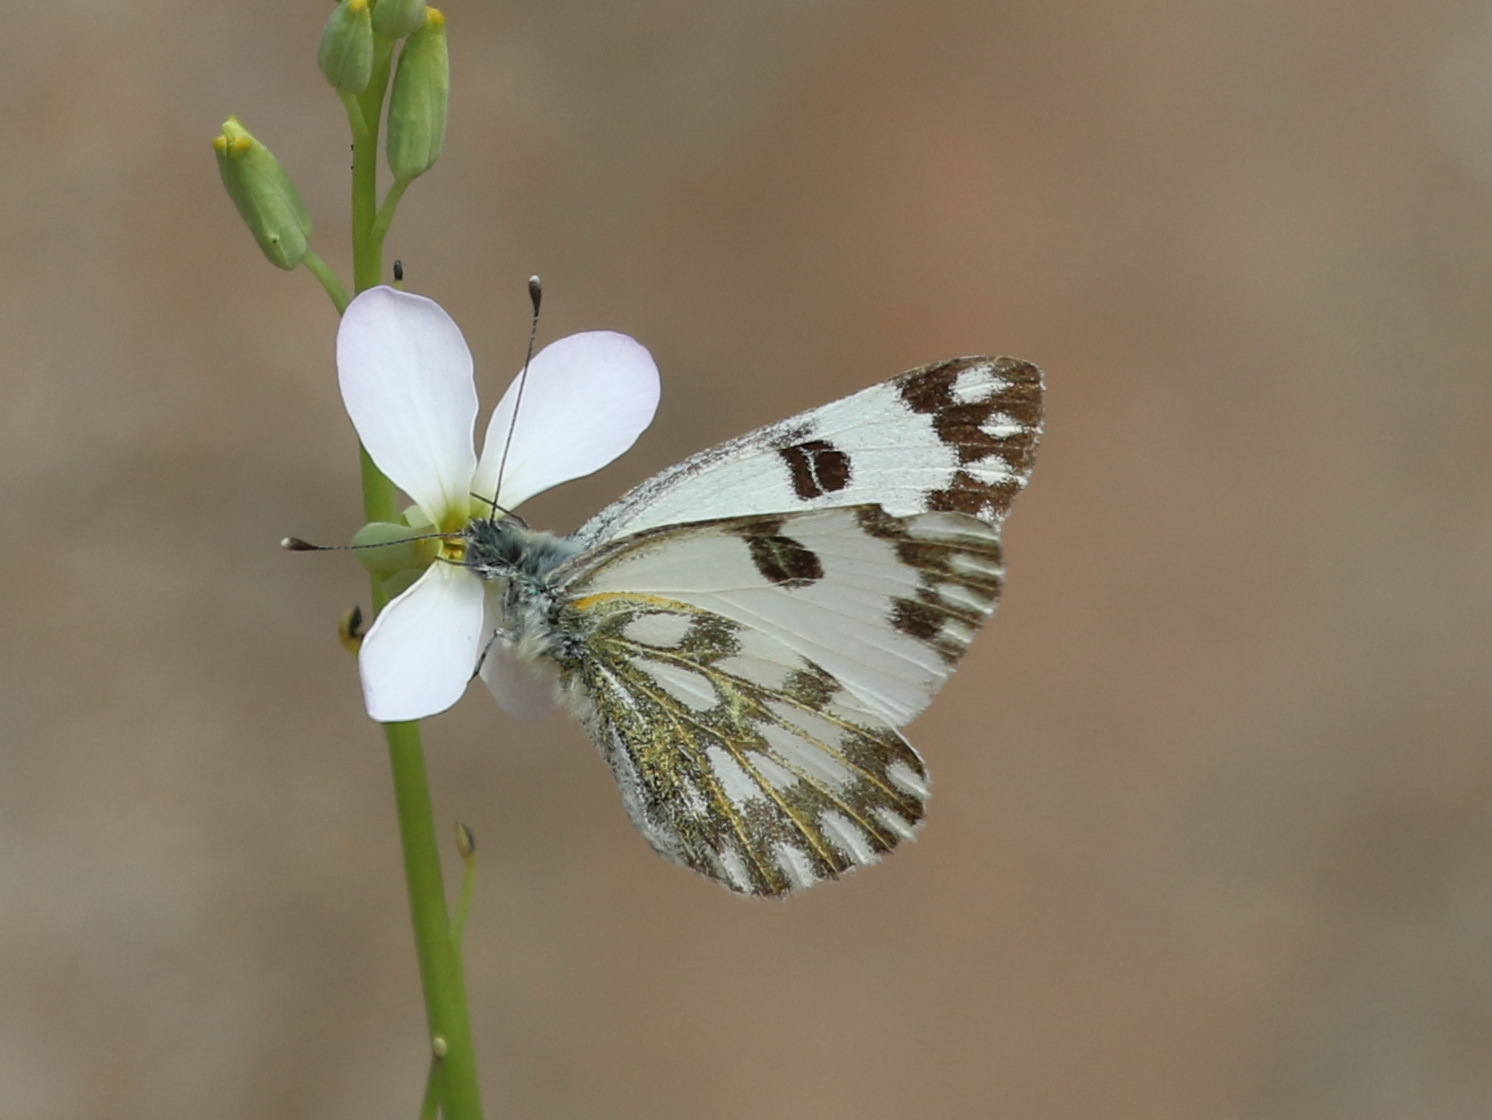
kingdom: Animalia
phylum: Arthropoda
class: Insecta
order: Lepidoptera
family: Pieridae
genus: Pontia
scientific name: Pontia glauconome
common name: Desert bath white
